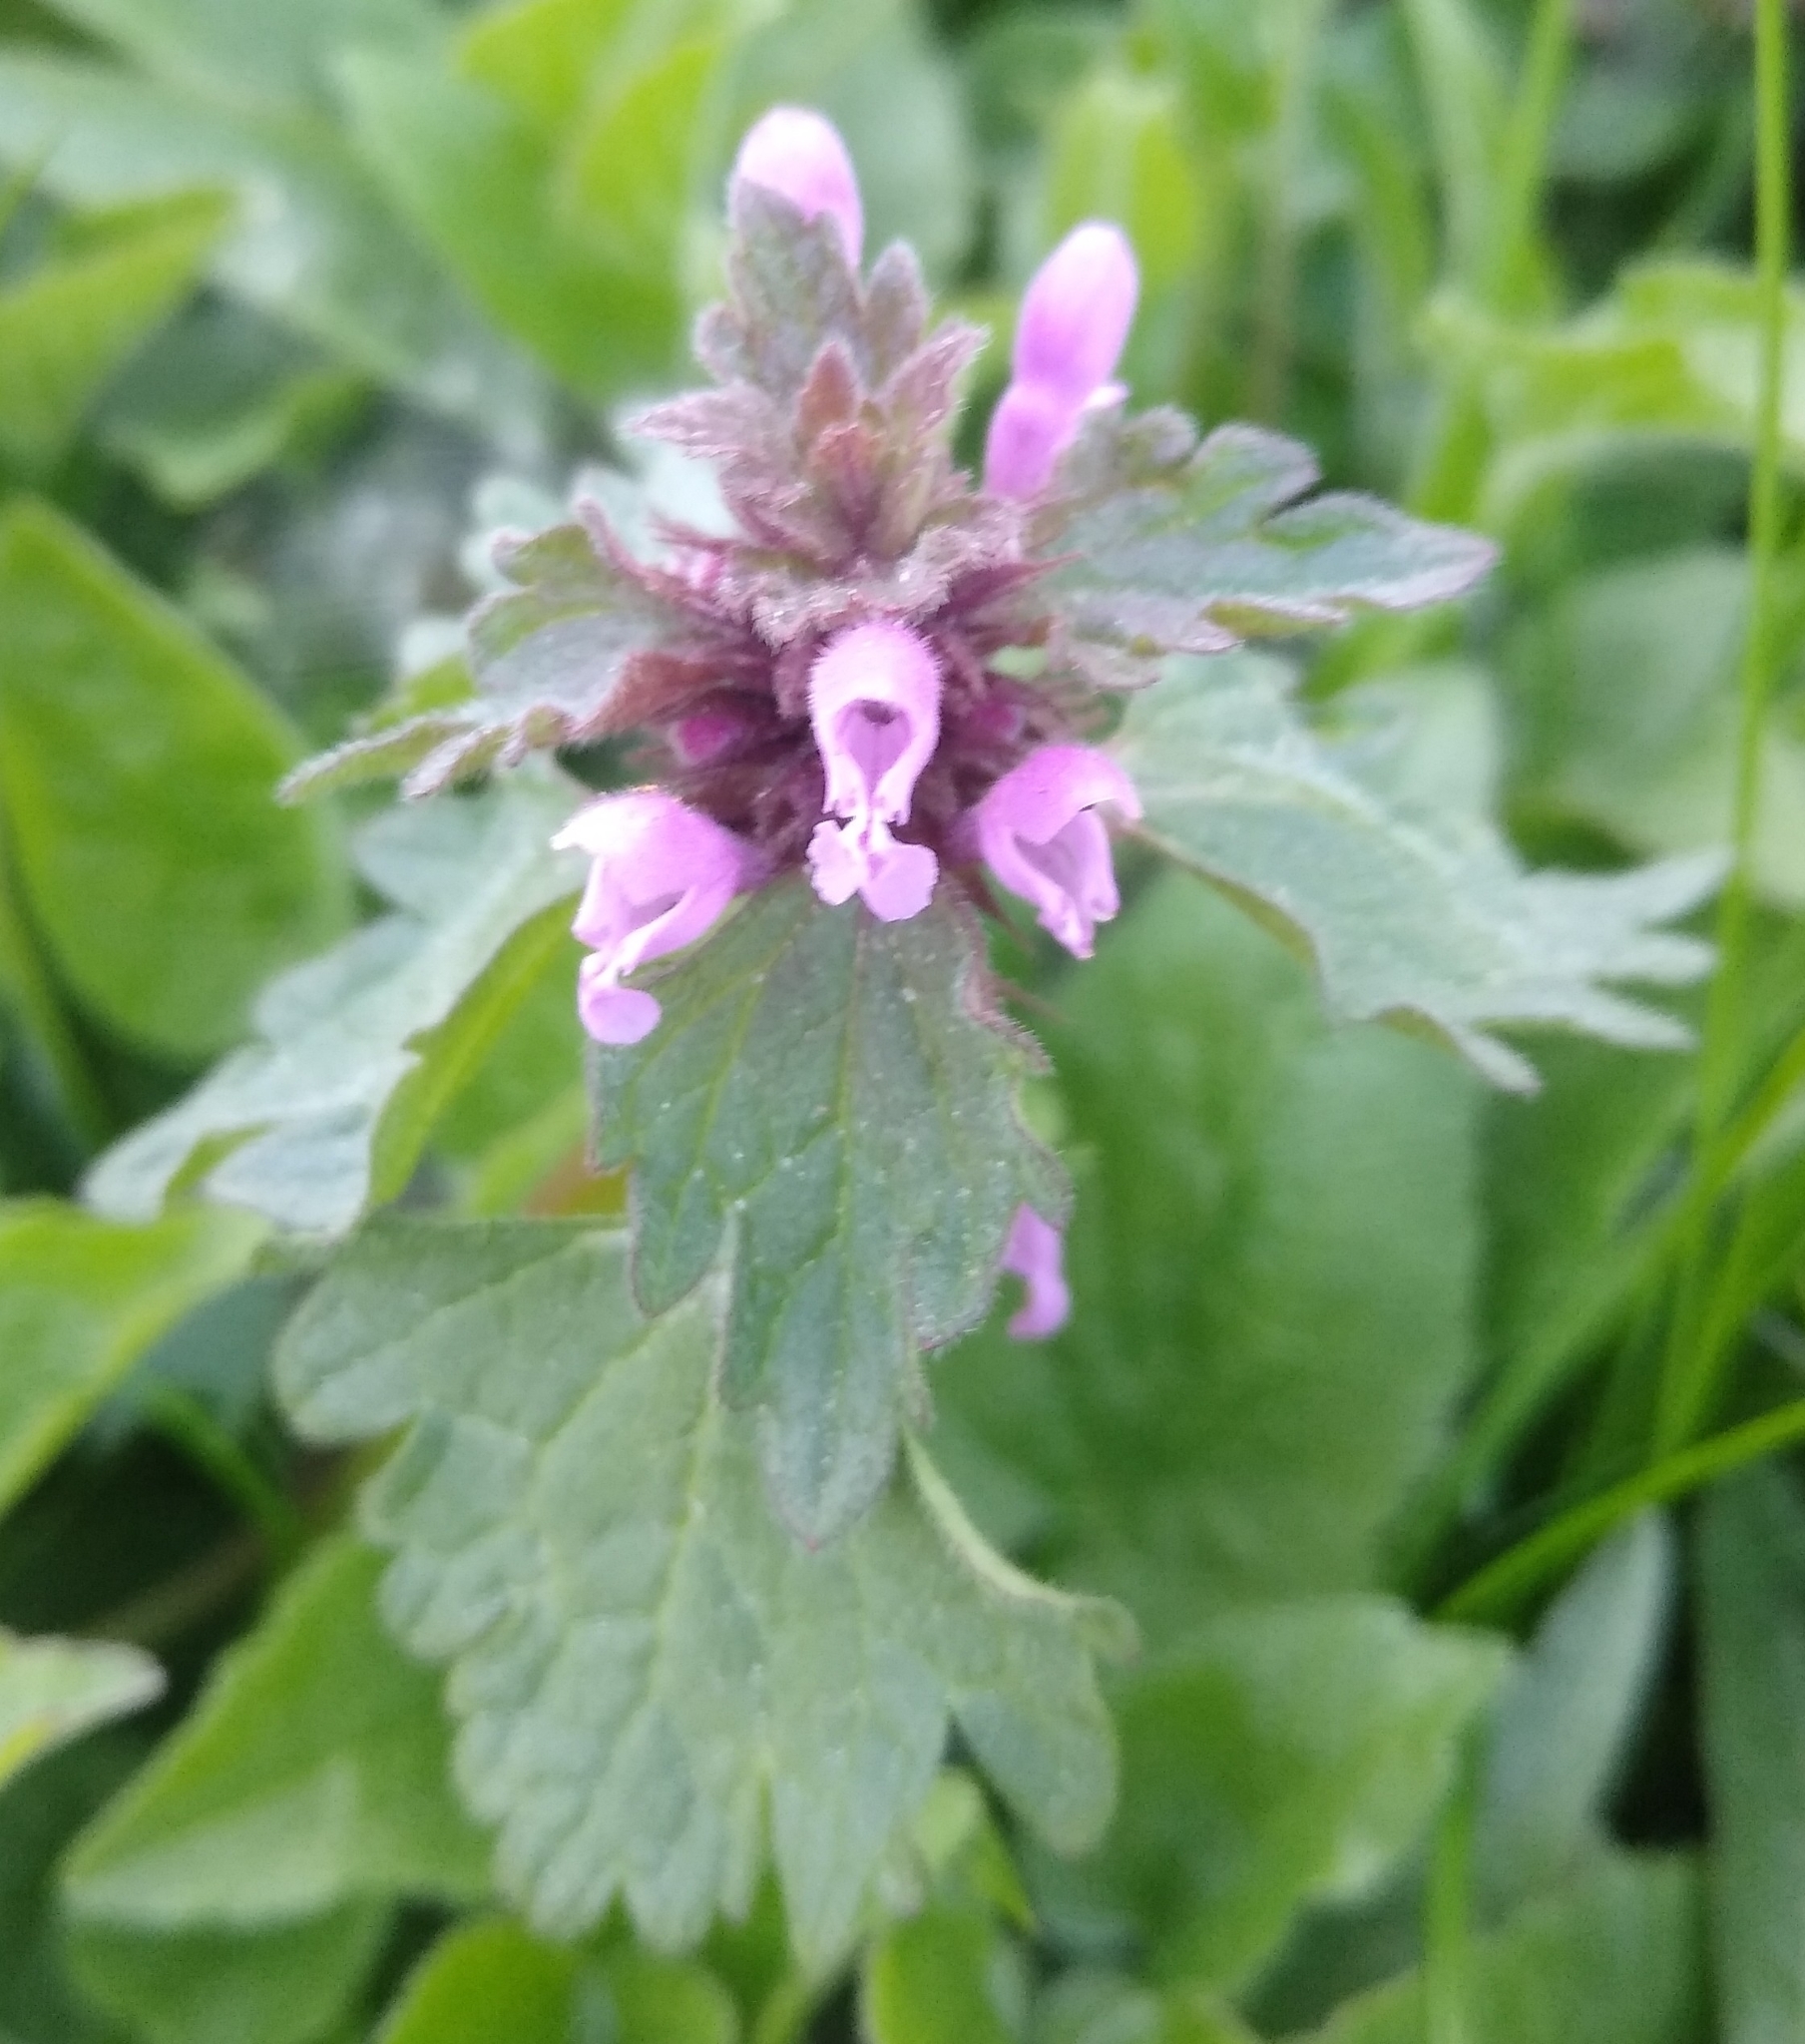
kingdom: Plantae
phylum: Tracheophyta
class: Magnoliopsida
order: Lamiales
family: Lamiaceae
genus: Lamium
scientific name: Lamium purpureum
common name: Red dead-nettle
